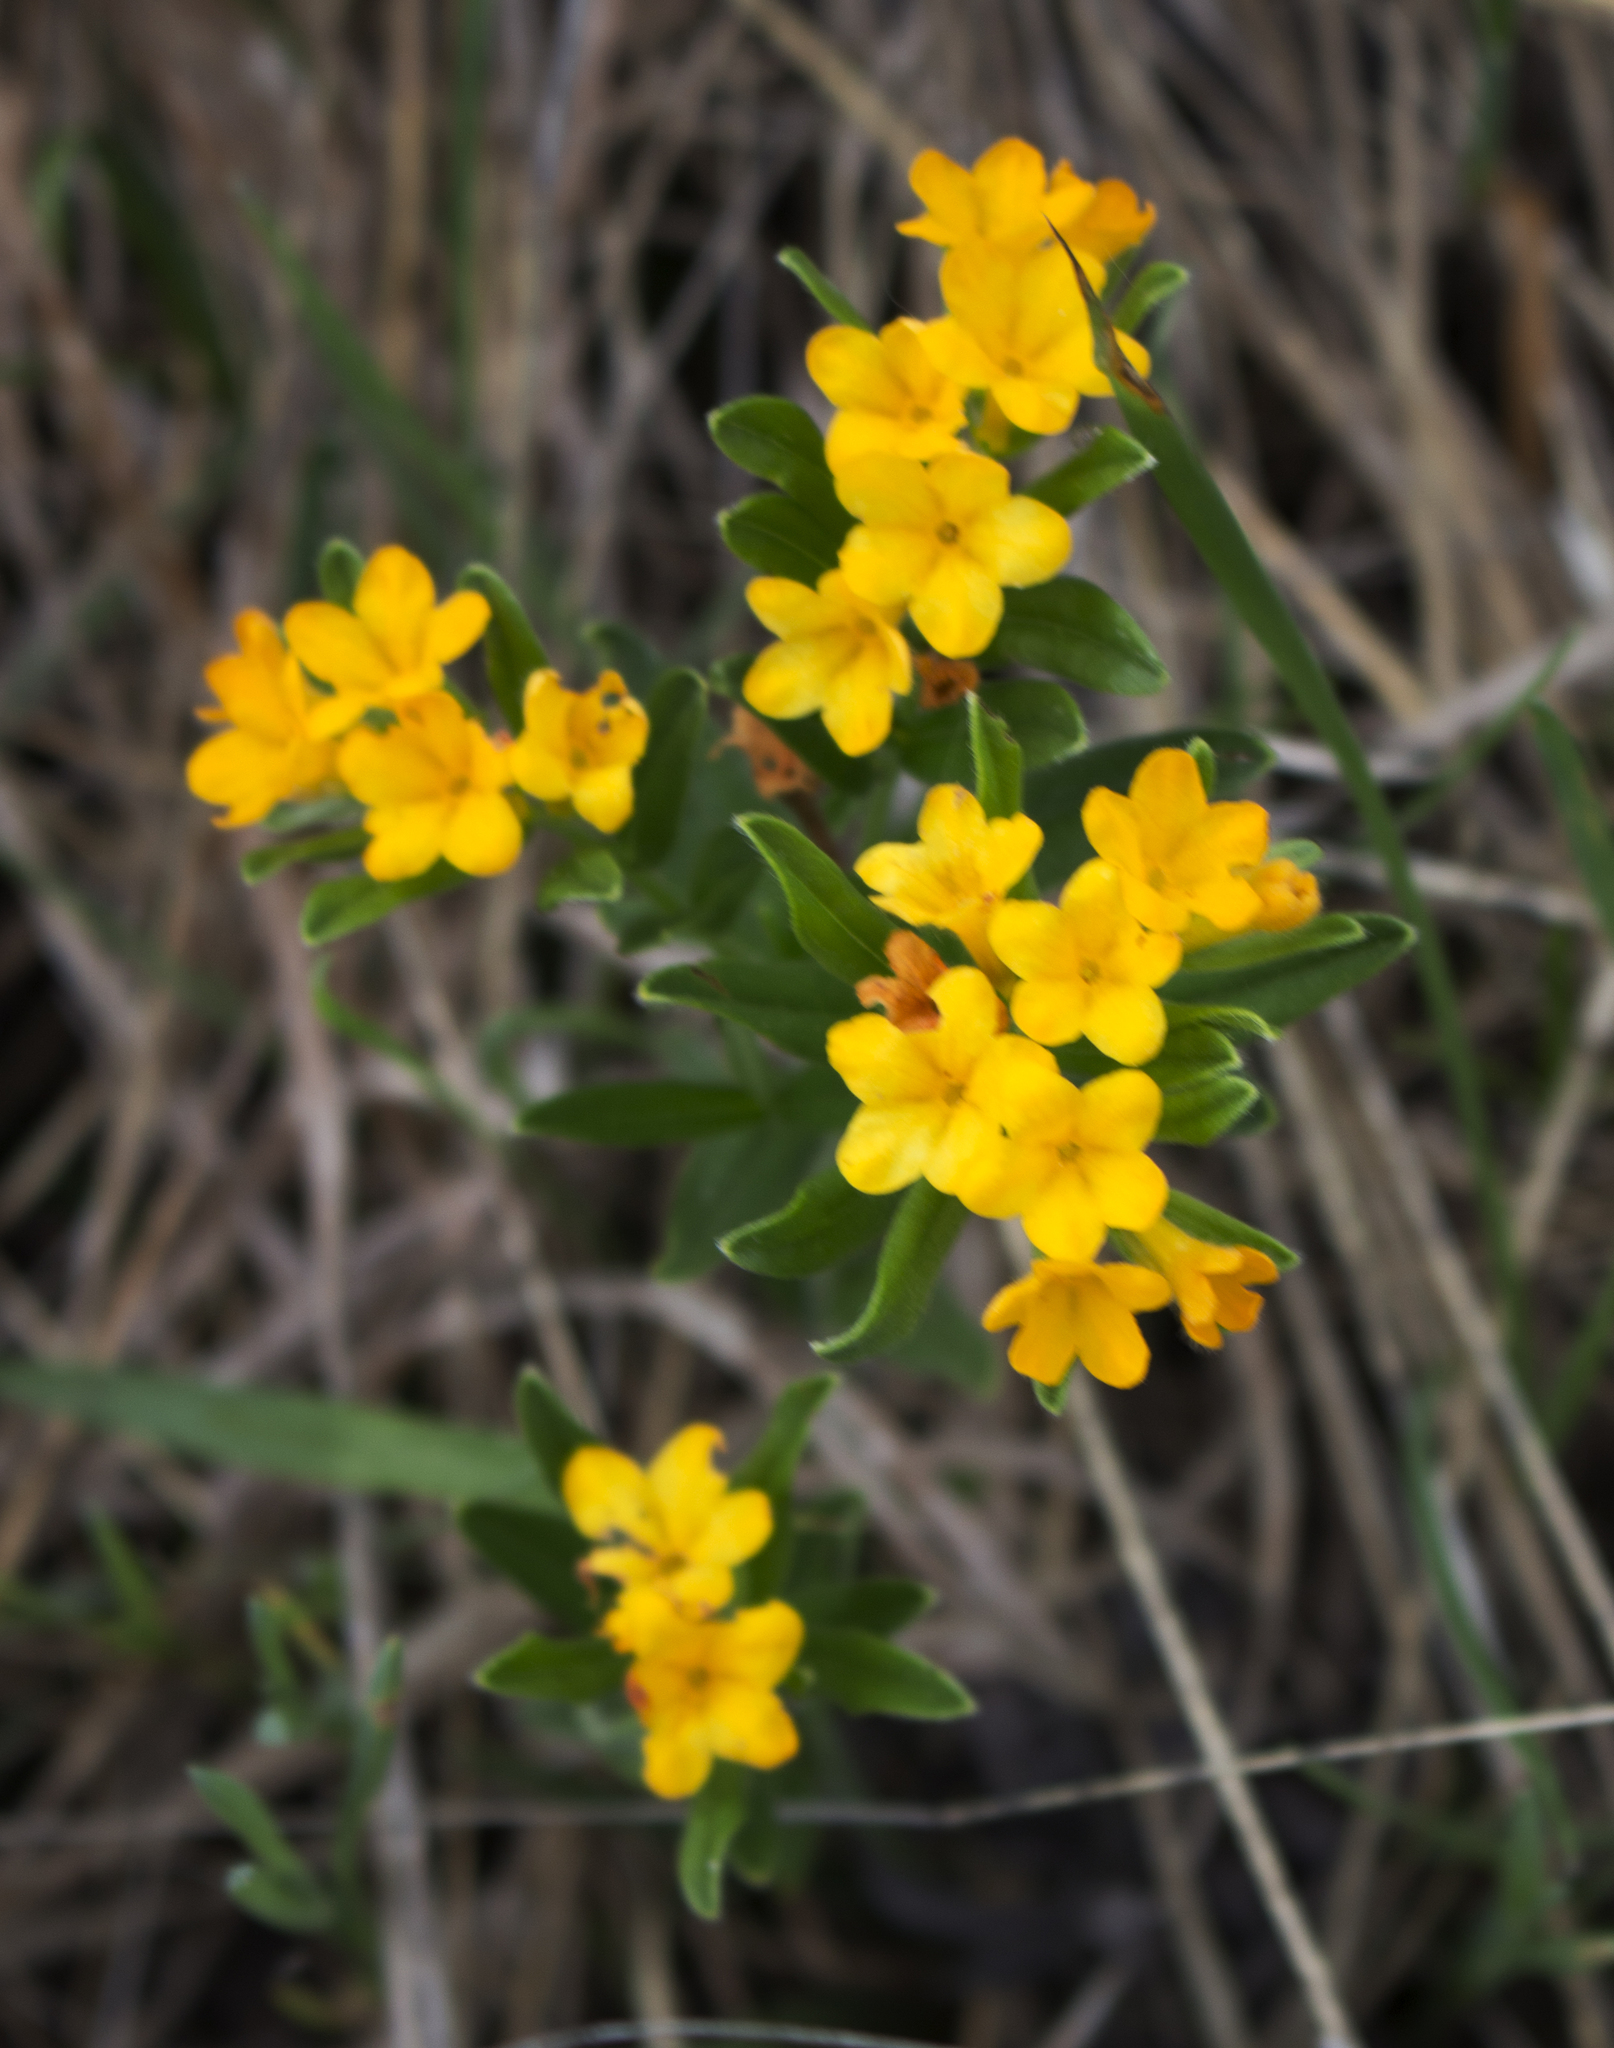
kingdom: Plantae
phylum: Tracheophyta
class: Magnoliopsida
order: Boraginales
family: Boraginaceae
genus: Lithospermum
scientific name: Lithospermum canescens
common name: Hoary puccoon
